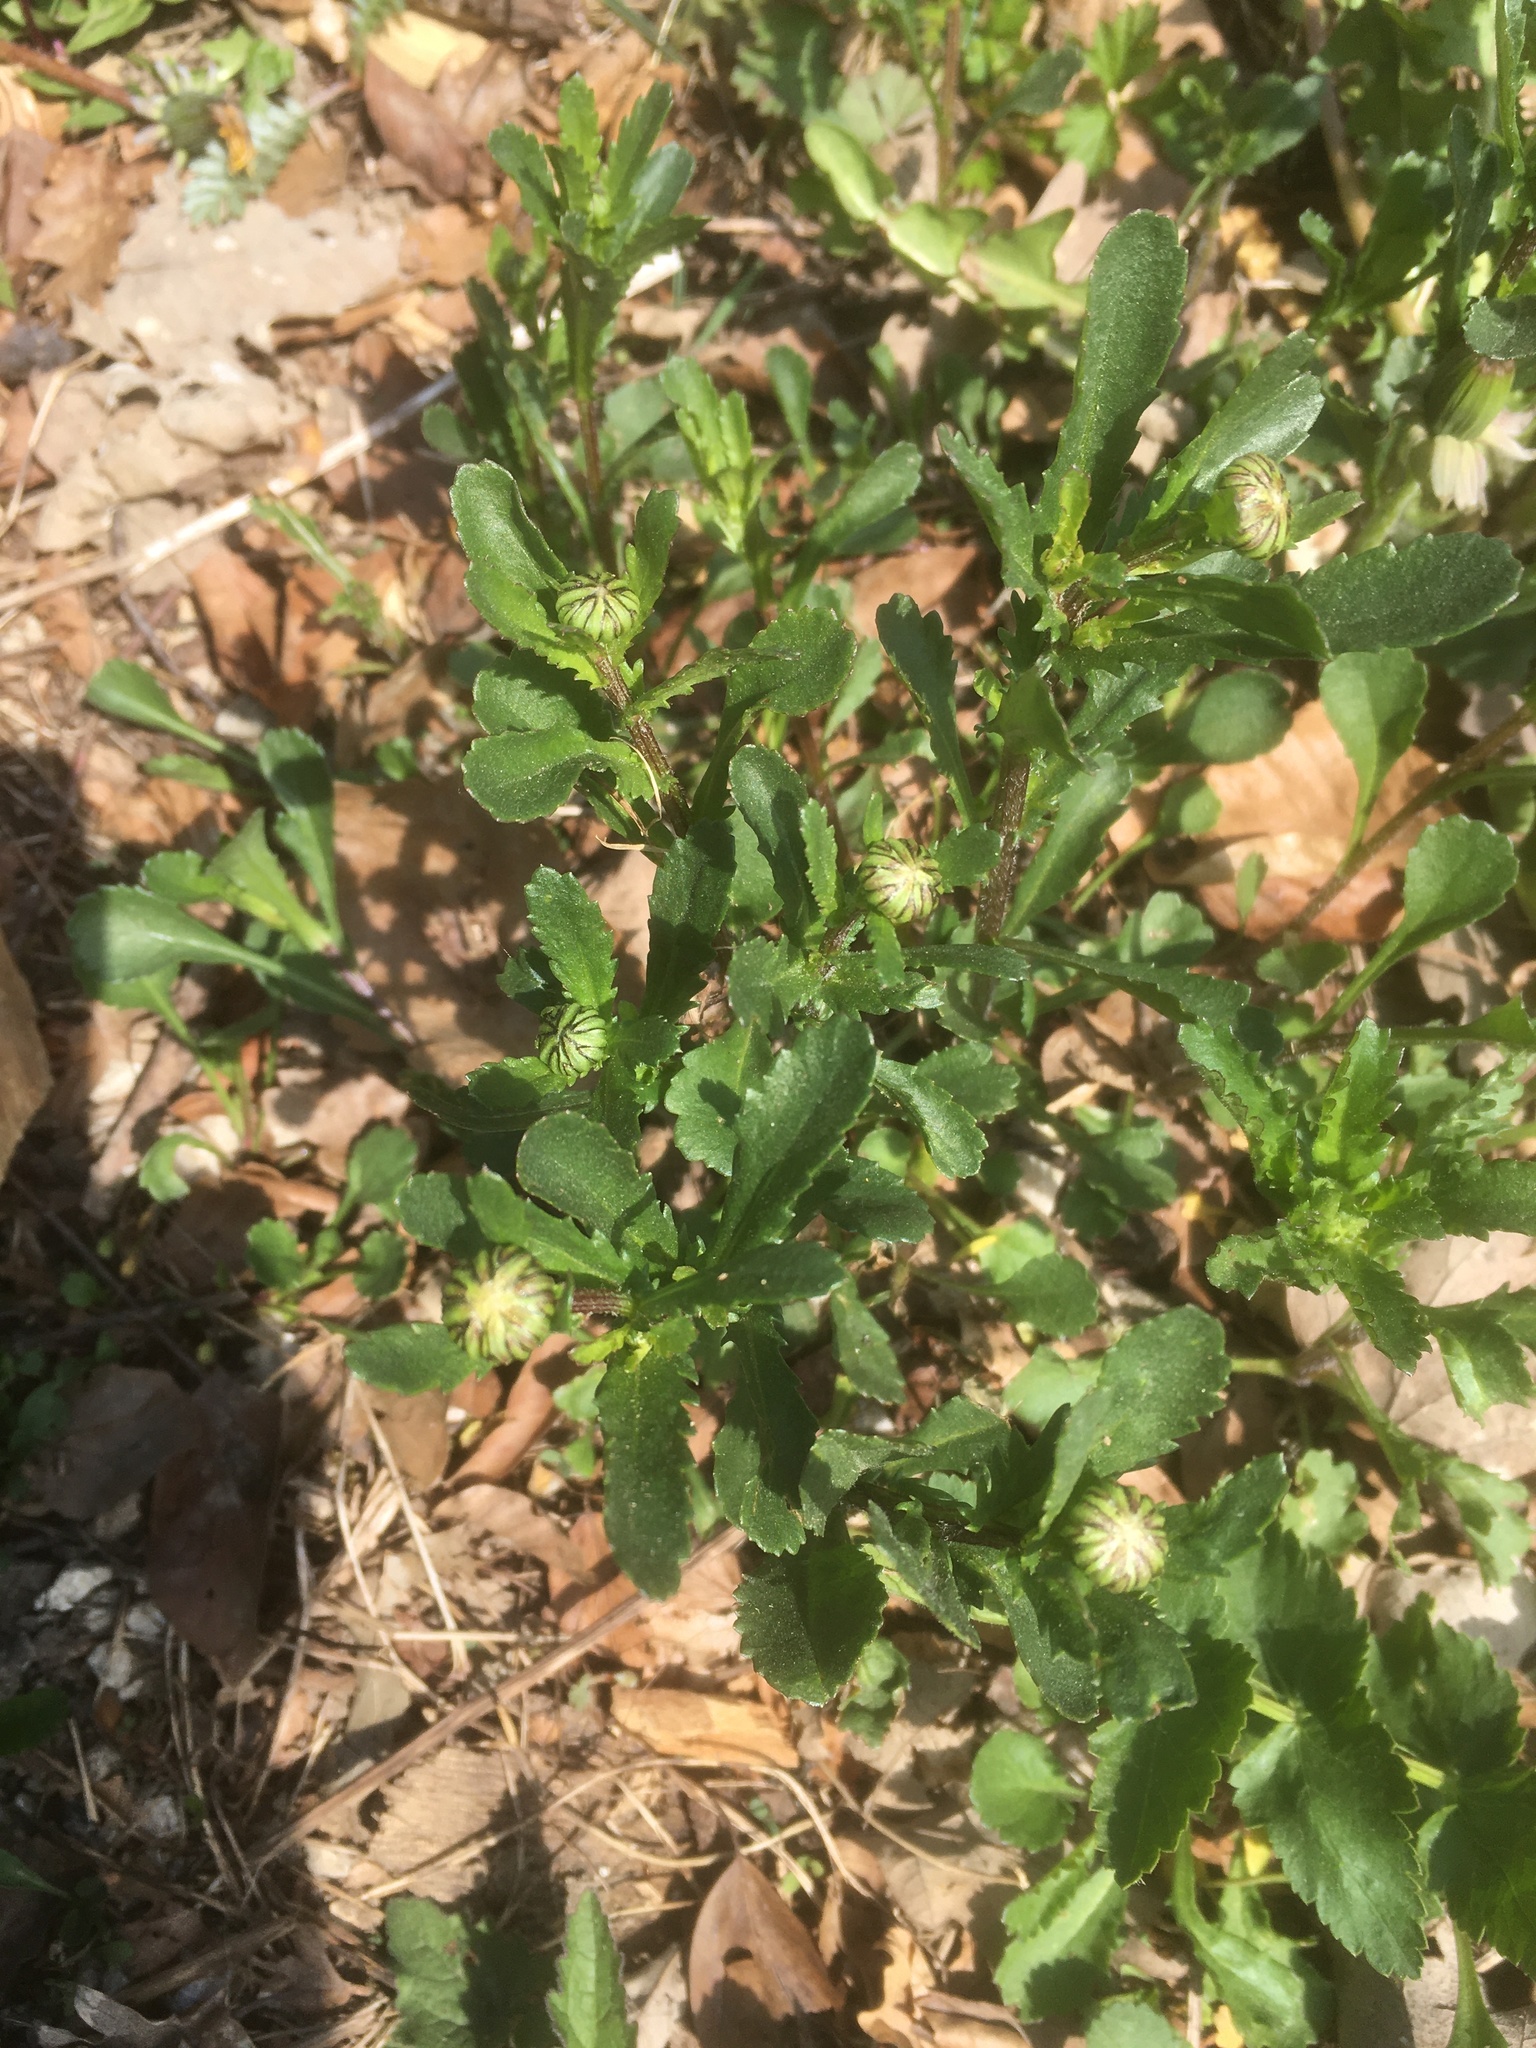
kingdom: Plantae
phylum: Tracheophyta
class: Magnoliopsida
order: Asterales
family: Asteraceae
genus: Leucanthemum
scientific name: Leucanthemum vulgare
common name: Oxeye daisy
